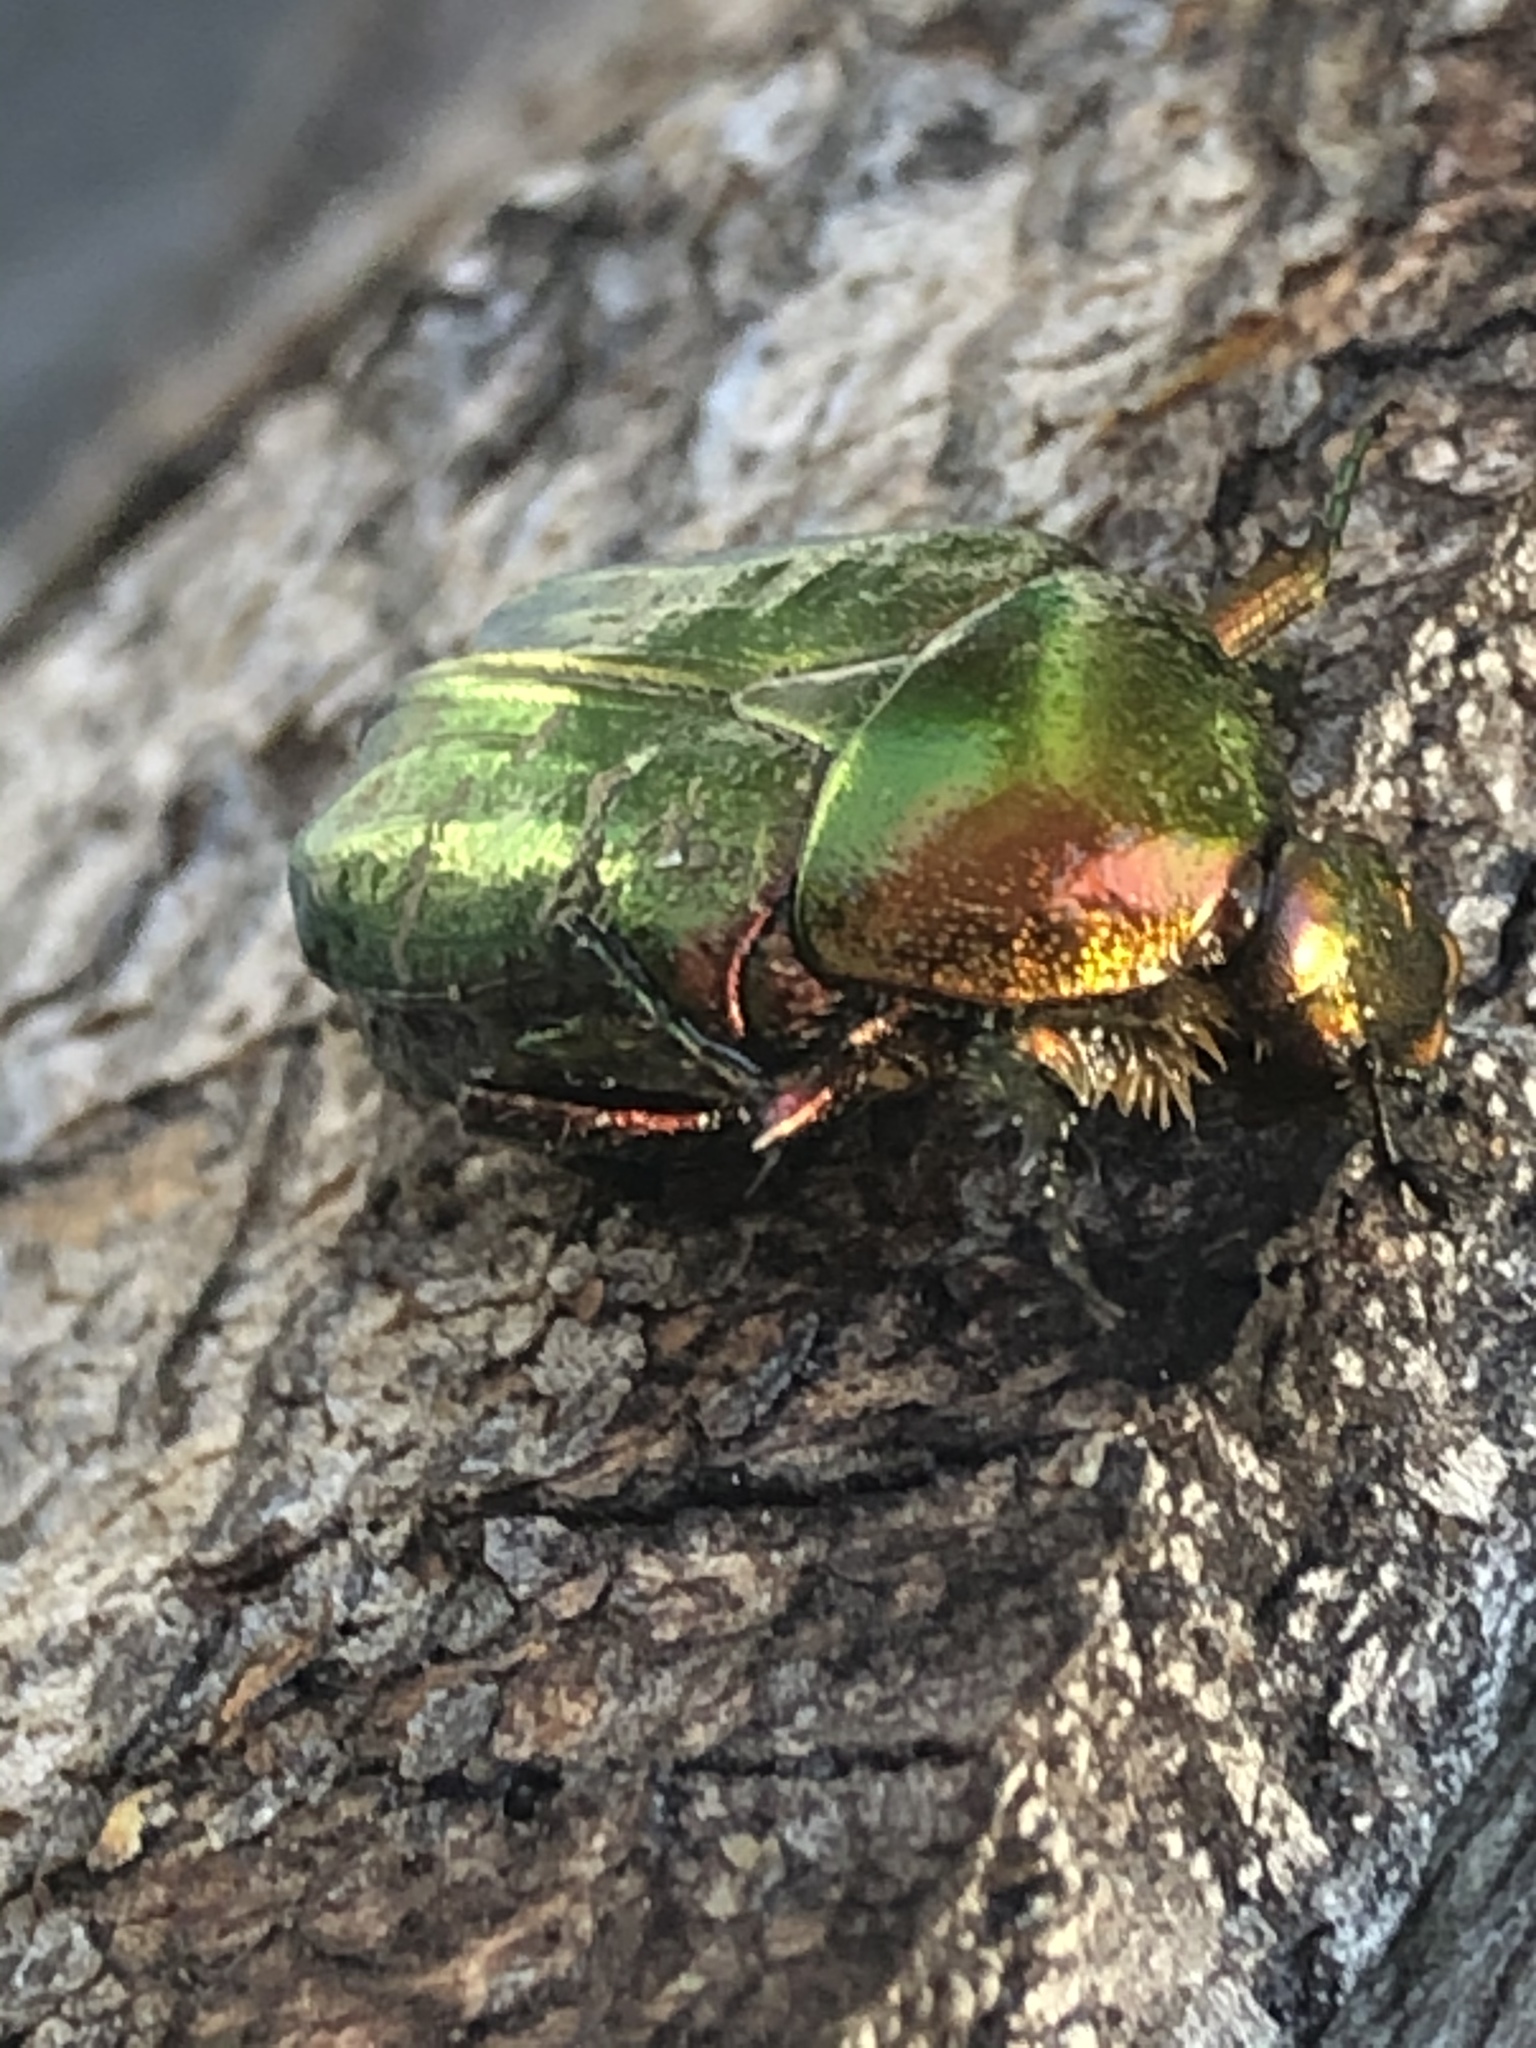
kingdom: Animalia
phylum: Arthropoda
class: Insecta
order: Coleoptera
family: Scarabaeidae
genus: Cetonia
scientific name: Cetonia aurata
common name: Rose chafer
